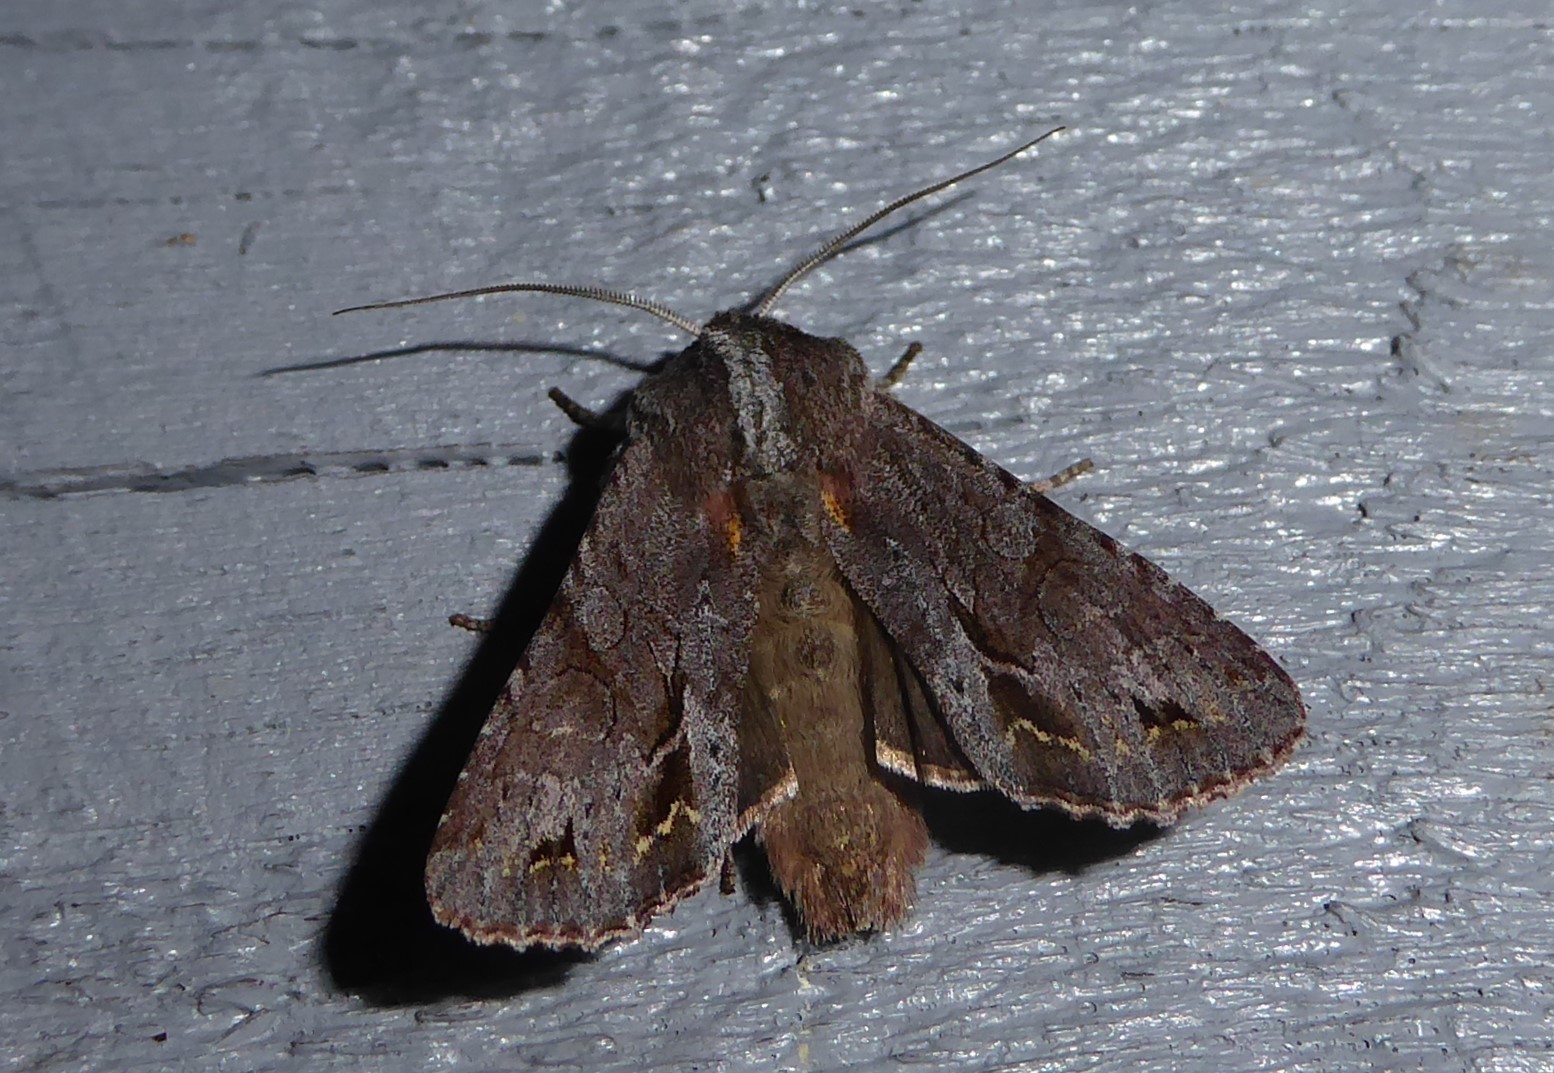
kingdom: Animalia
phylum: Arthropoda
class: Insecta
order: Lepidoptera
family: Noctuidae
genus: Ichneutica
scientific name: Ichneutica
